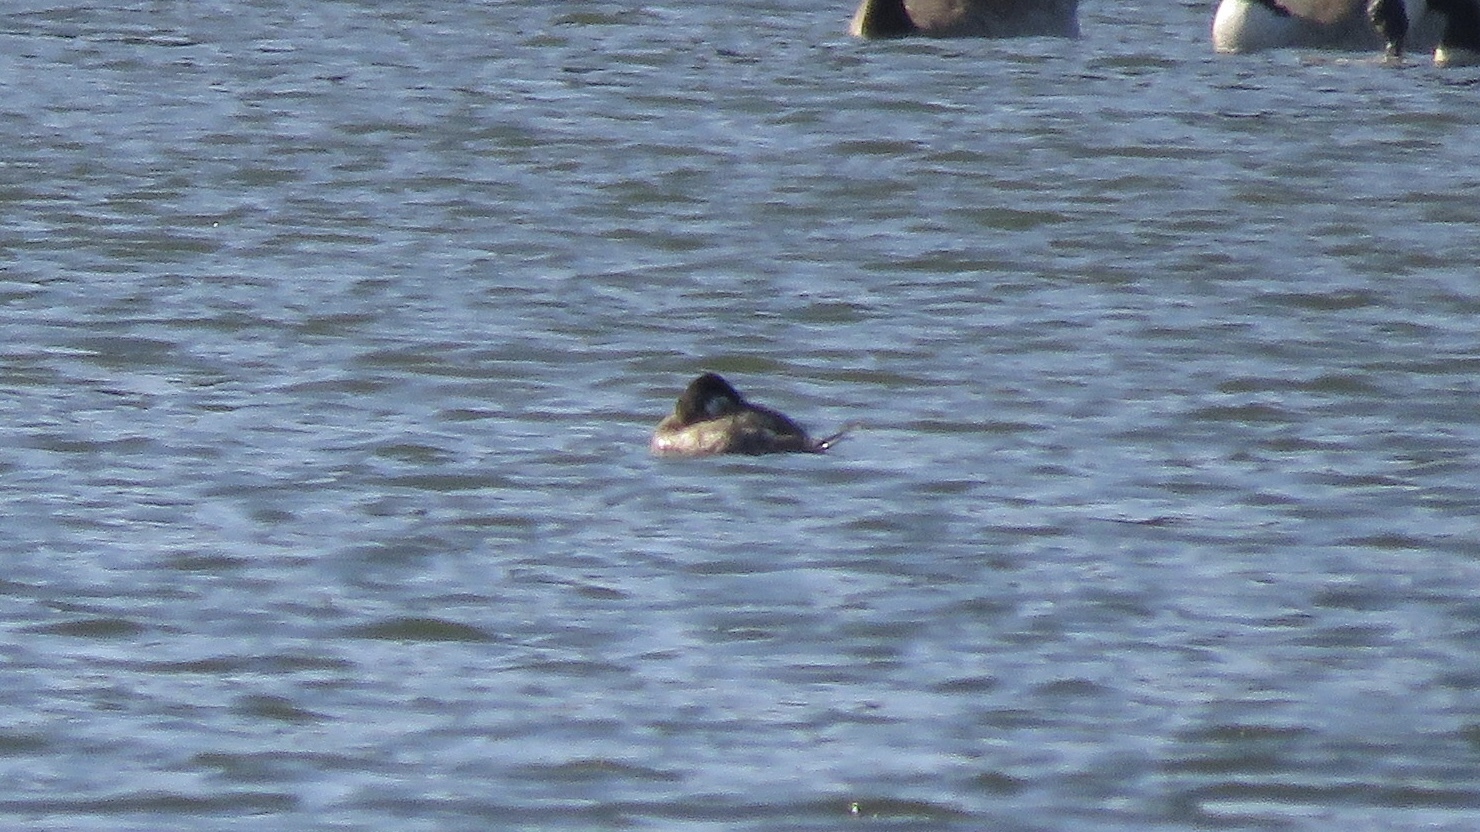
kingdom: Animalia
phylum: Chordata
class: Aves
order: Anseriformes
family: Anatidae
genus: Oxyura
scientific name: Oxyura jamaicensis
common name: Ruddy duck
